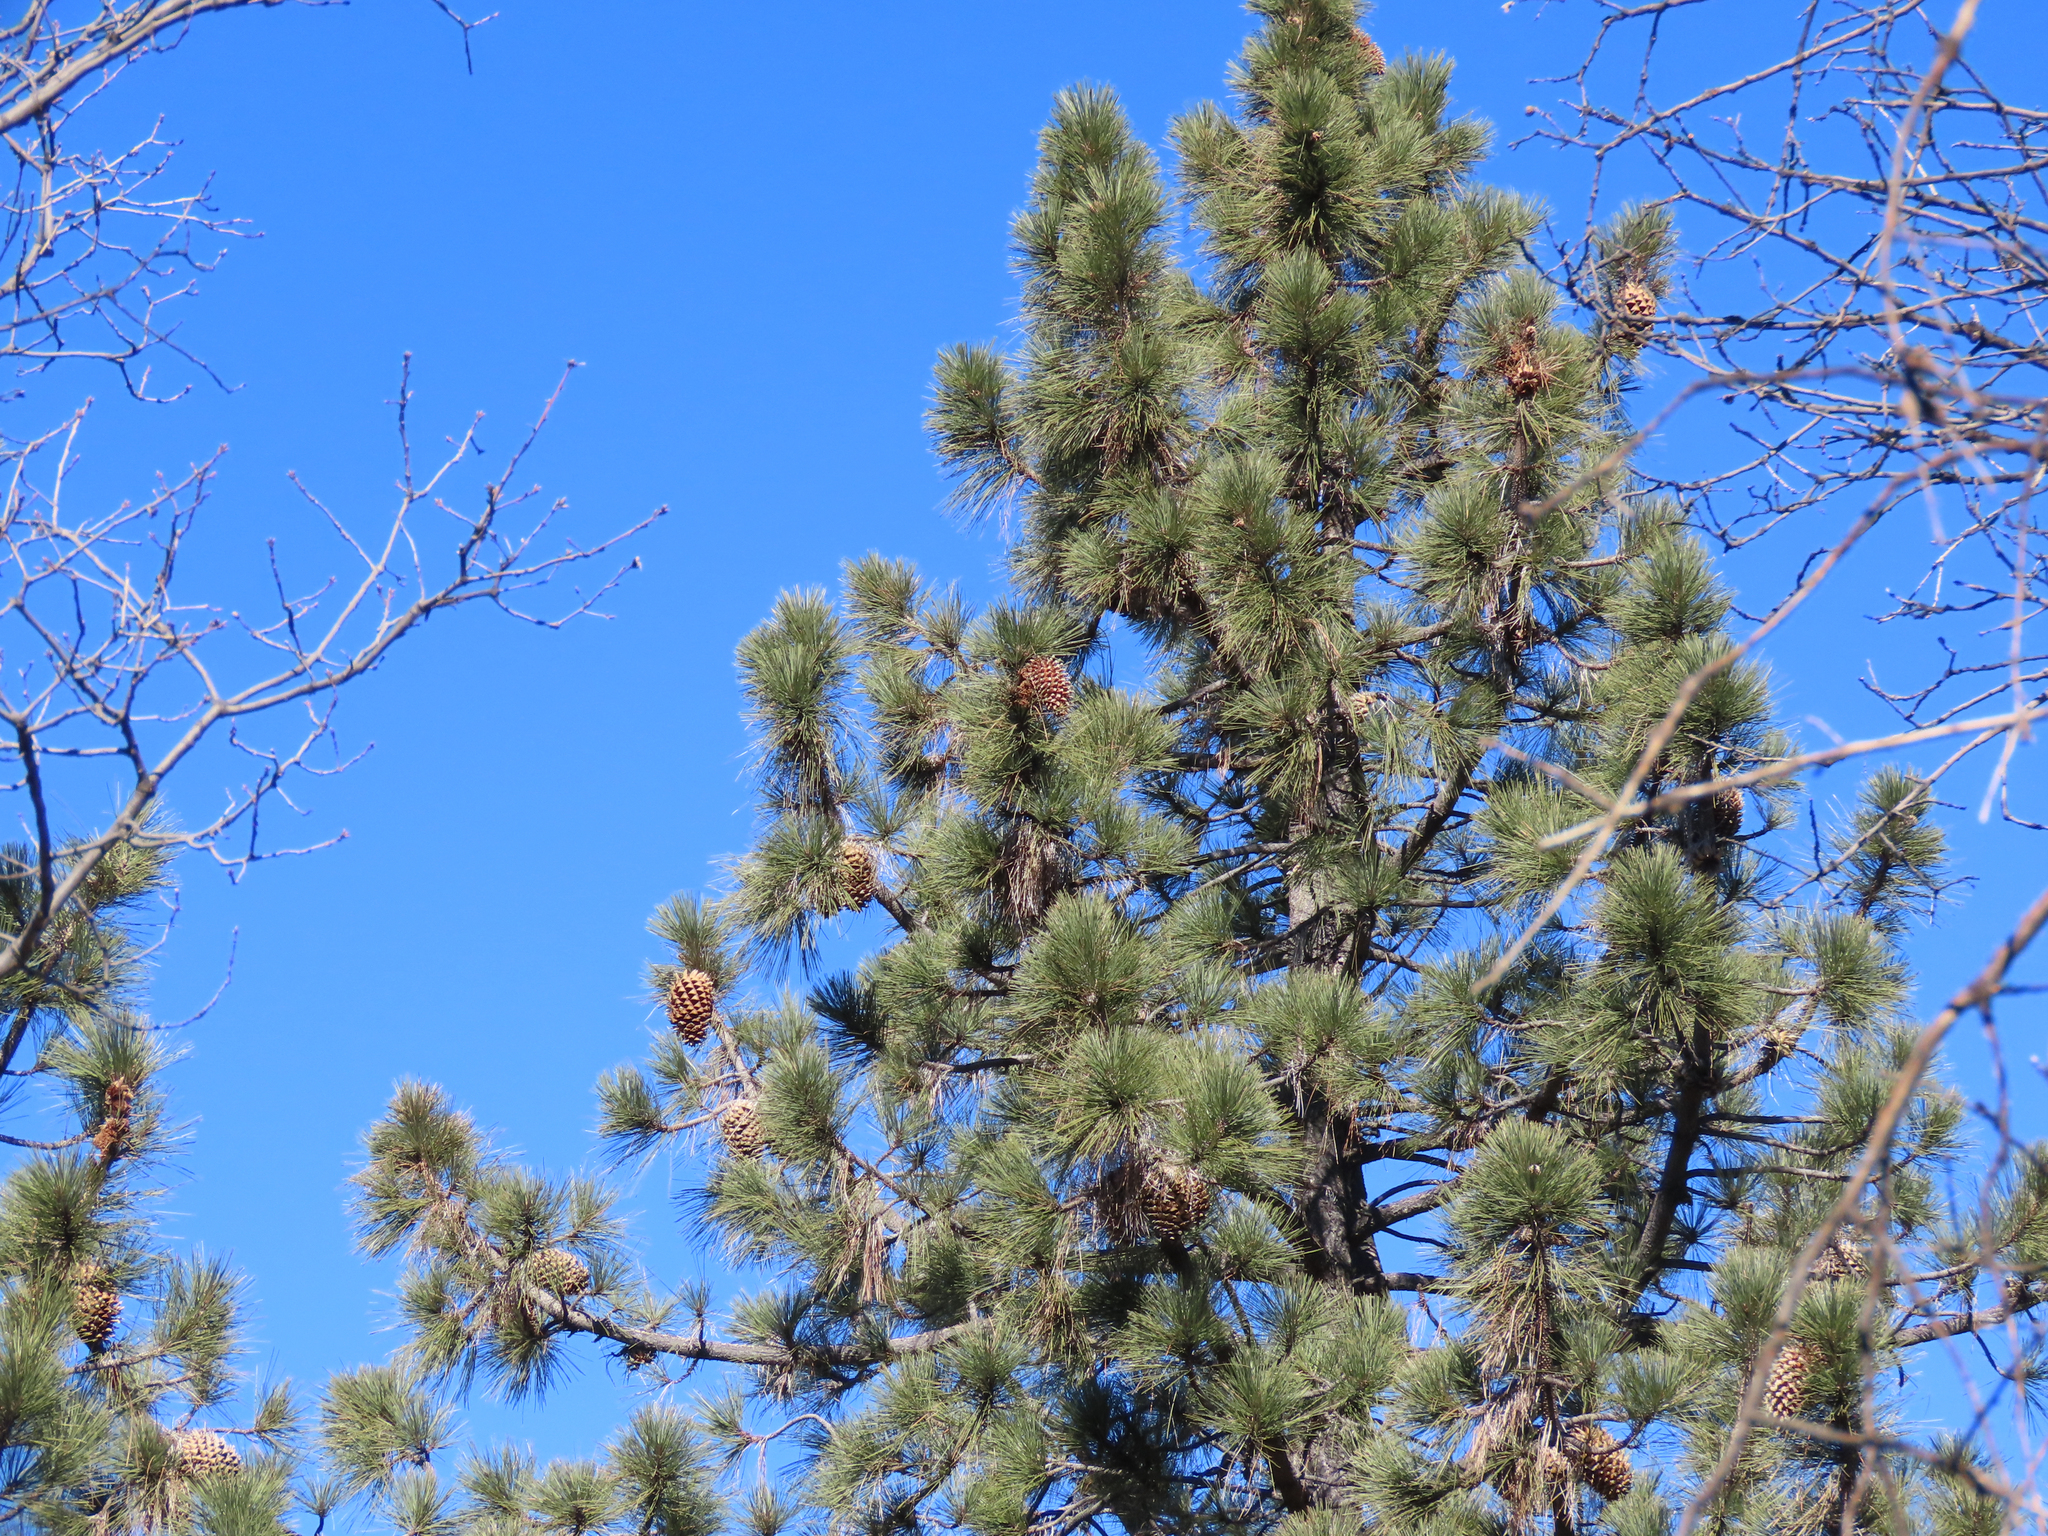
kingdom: Plantae
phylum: Tracheophyta
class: Pinopsida
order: Pinales
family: Pinaceae
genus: Pinus
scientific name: Pinus coulteri
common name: Coulter pine
